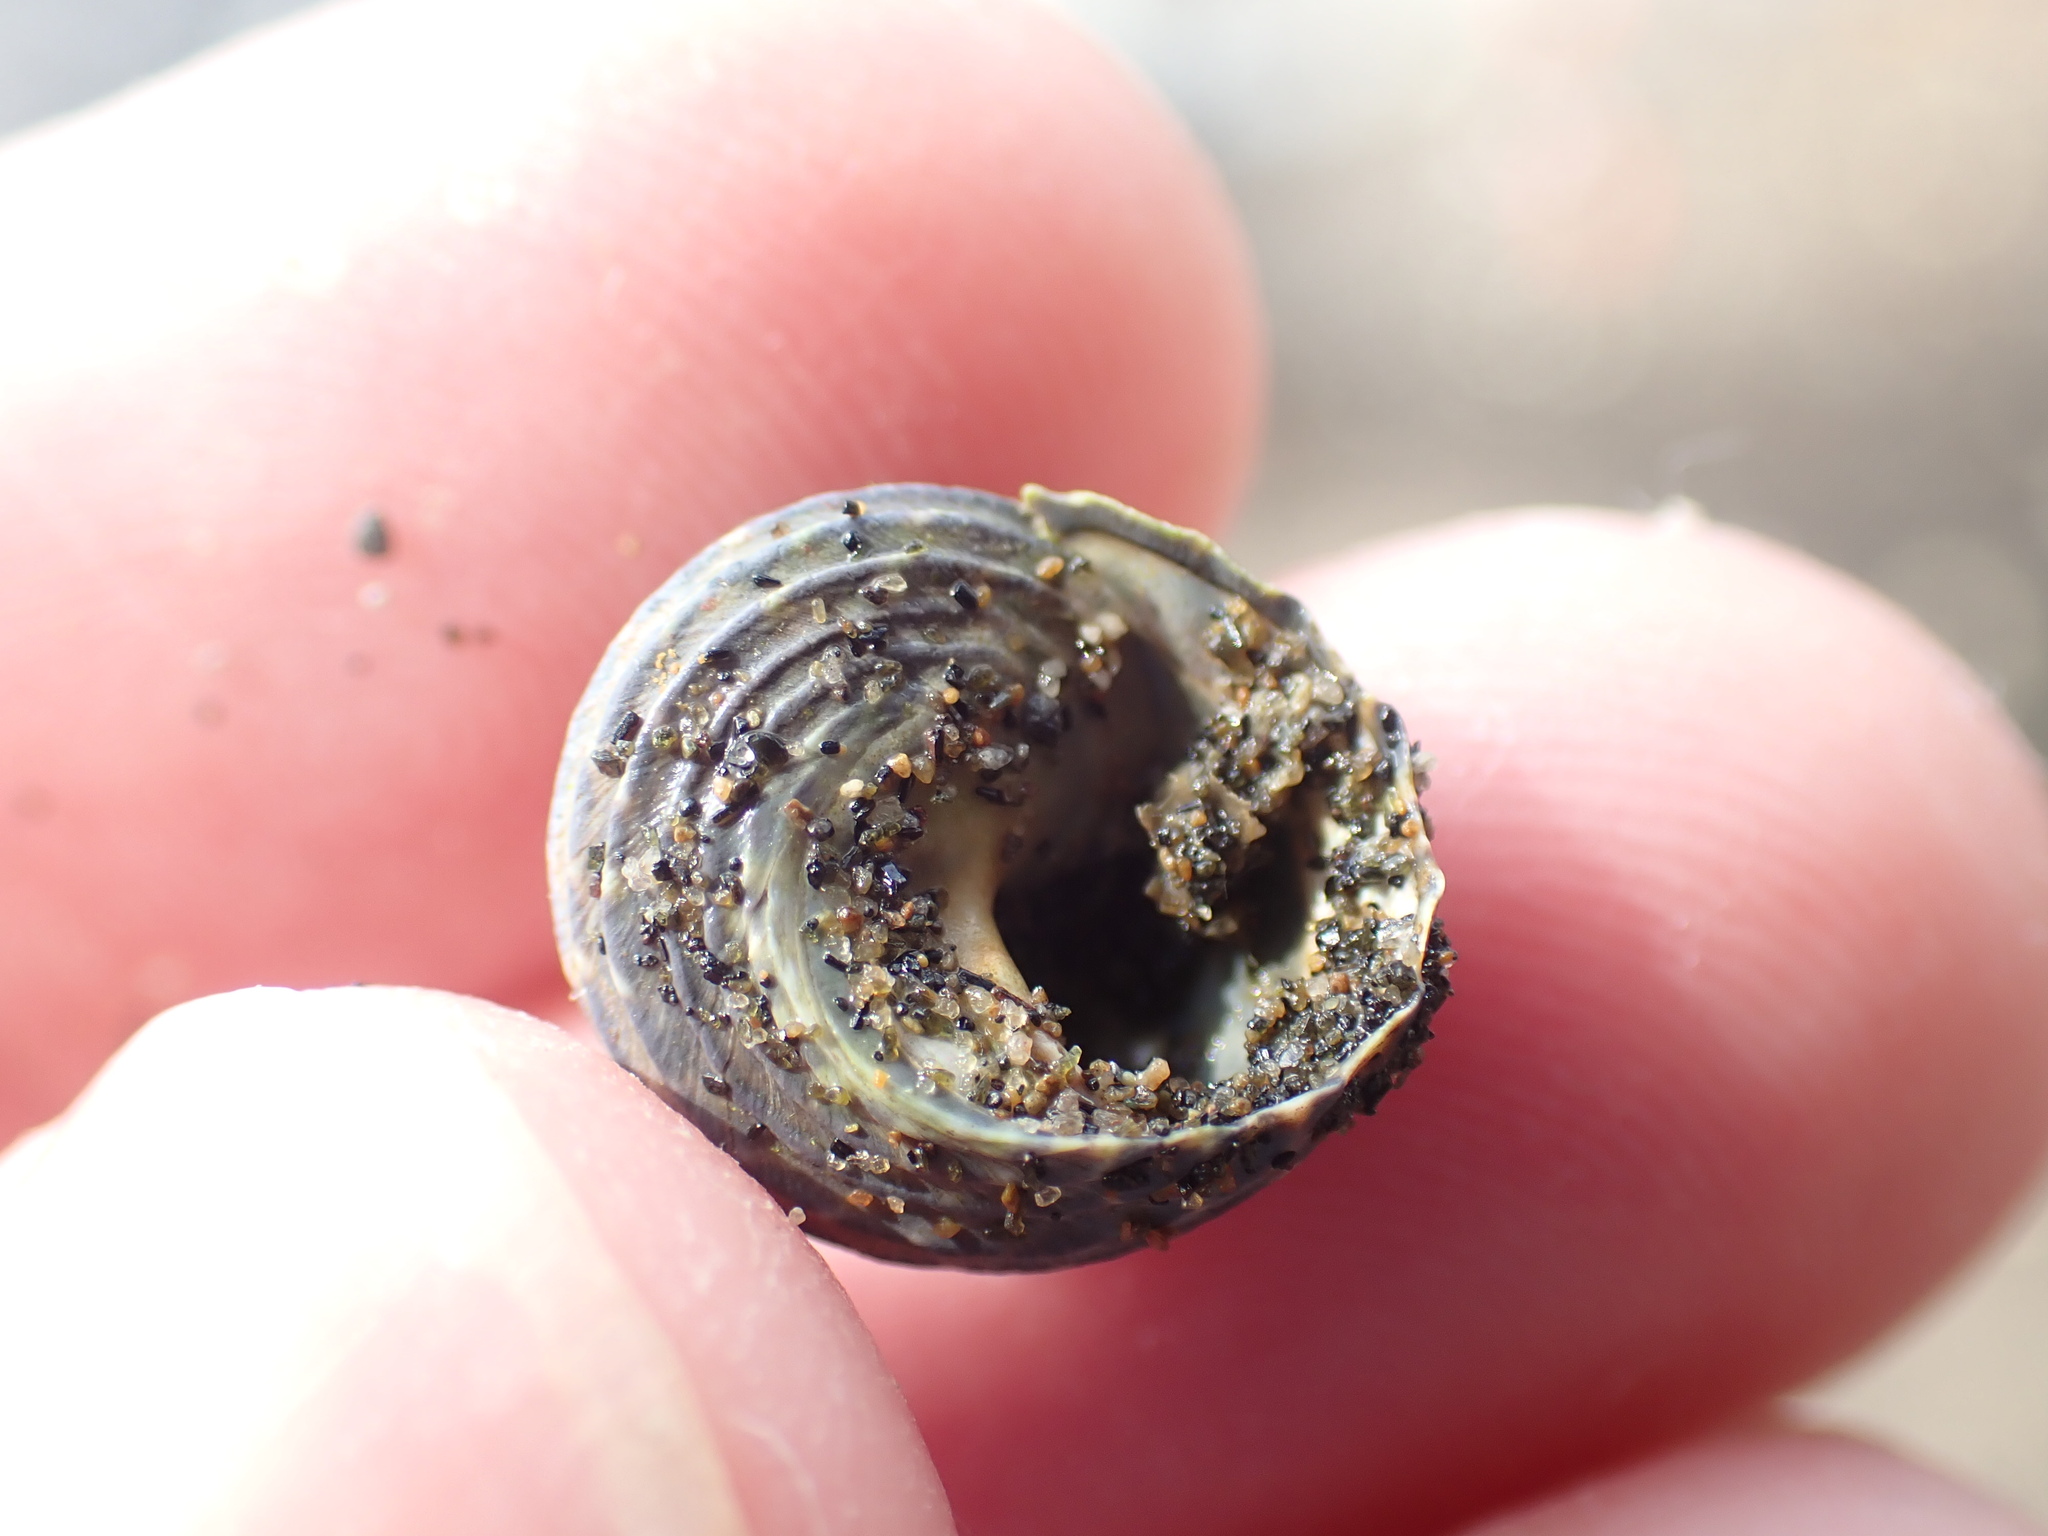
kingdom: Animalia
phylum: Mollusca
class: Gastropoda
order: Trochida
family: Trochidae
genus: Diloma
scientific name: Diloma subrostratum
